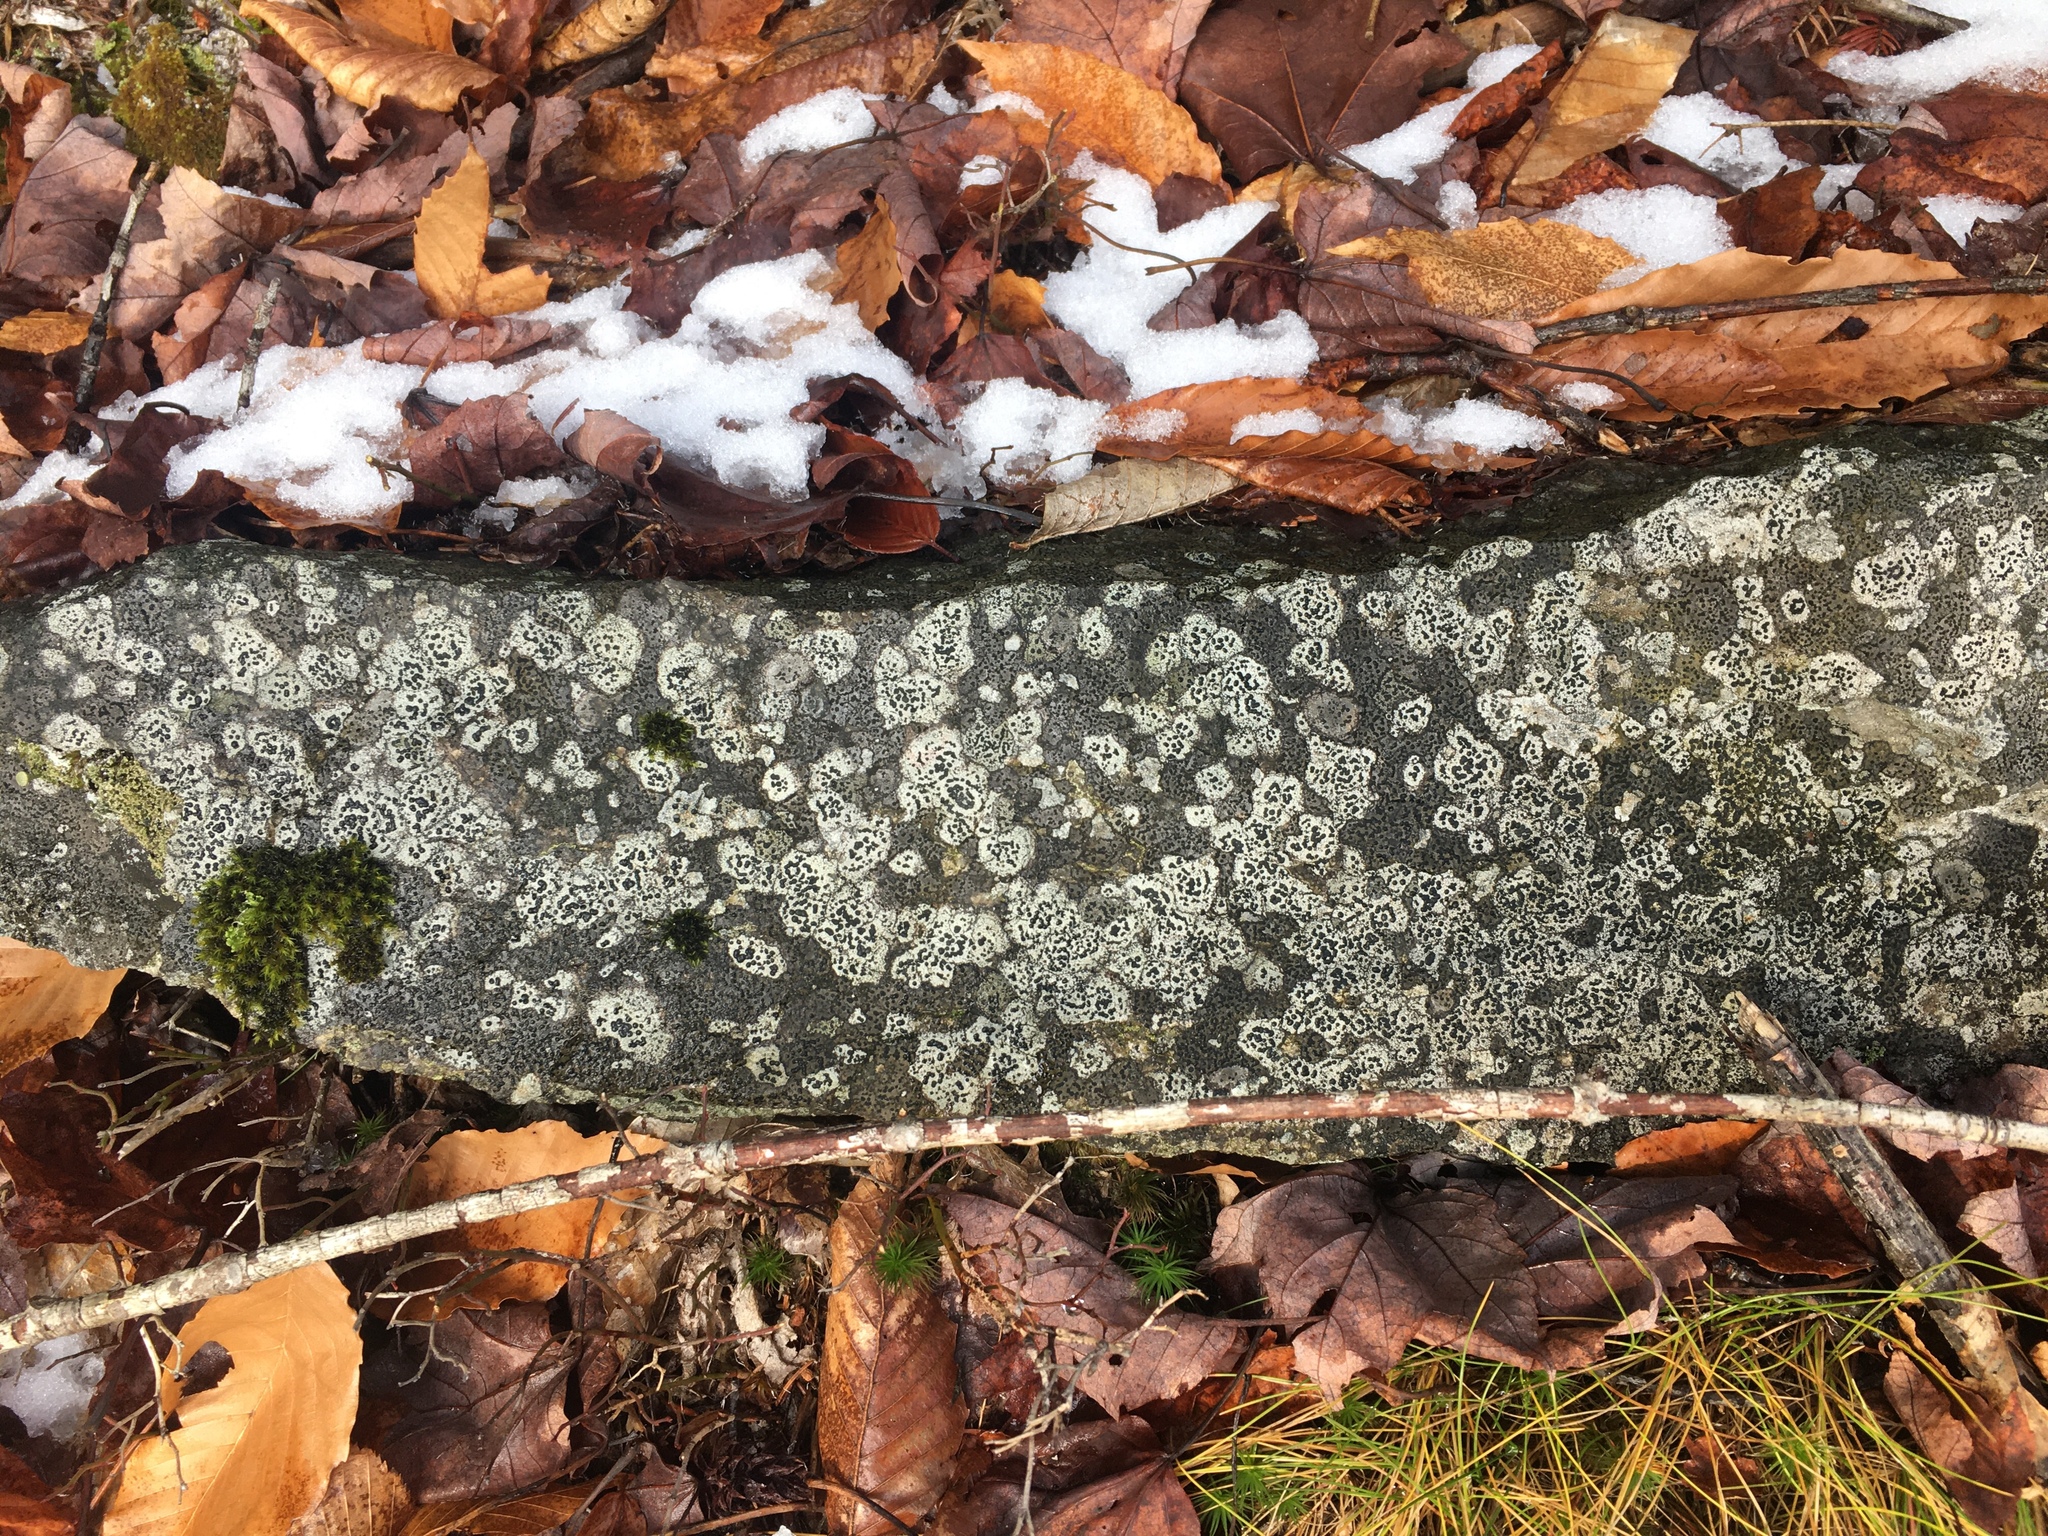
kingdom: Fungi
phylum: Ascomycota
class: Lecanoromycetes
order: Lecideales
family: Lecideaceae
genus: Porpidia
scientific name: Porpidia crustulata
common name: Concentric boulder lichen
